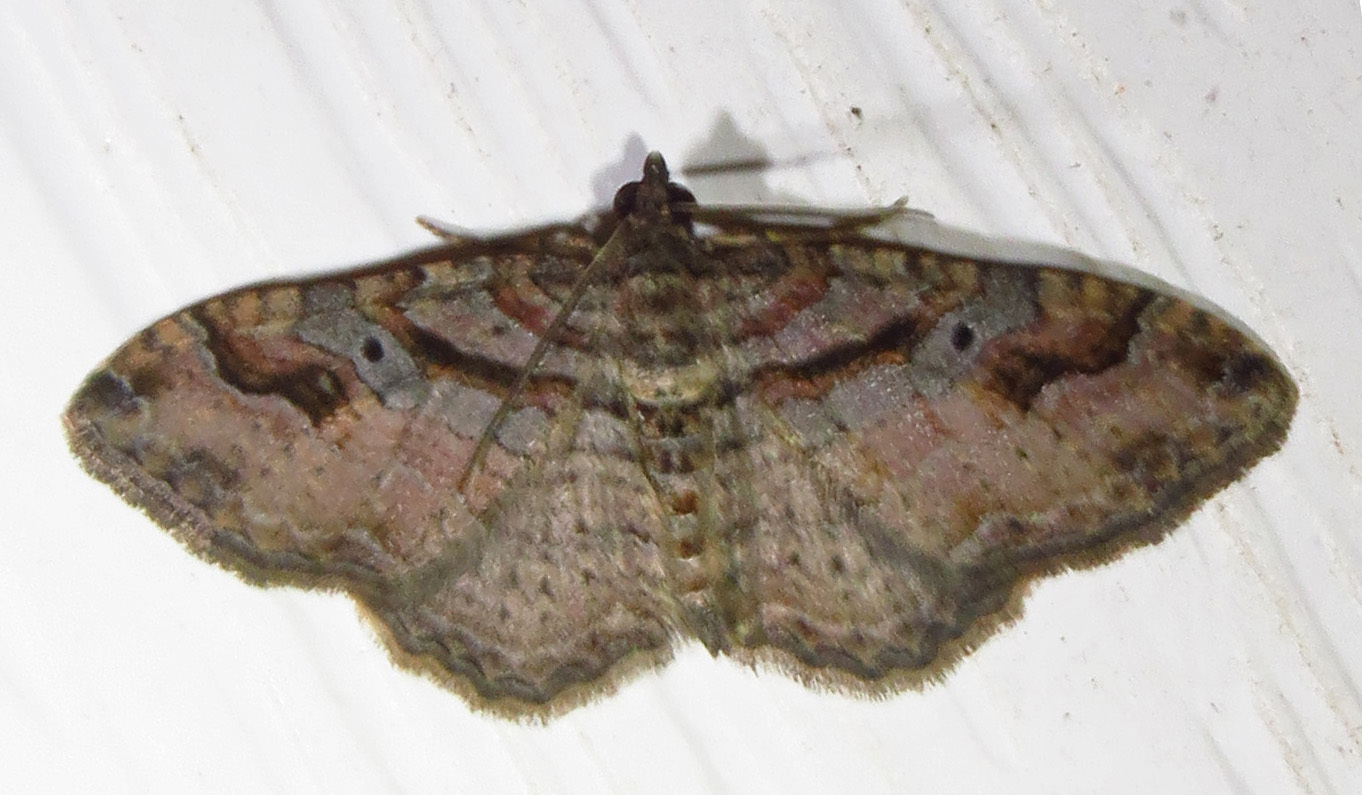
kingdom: Animalia
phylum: Arthropoda
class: Insecta
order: Lepidoptera
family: Geometridae
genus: Costaconvexa
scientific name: Costaconvexa centrostrigaria
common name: Bent-line carpet
